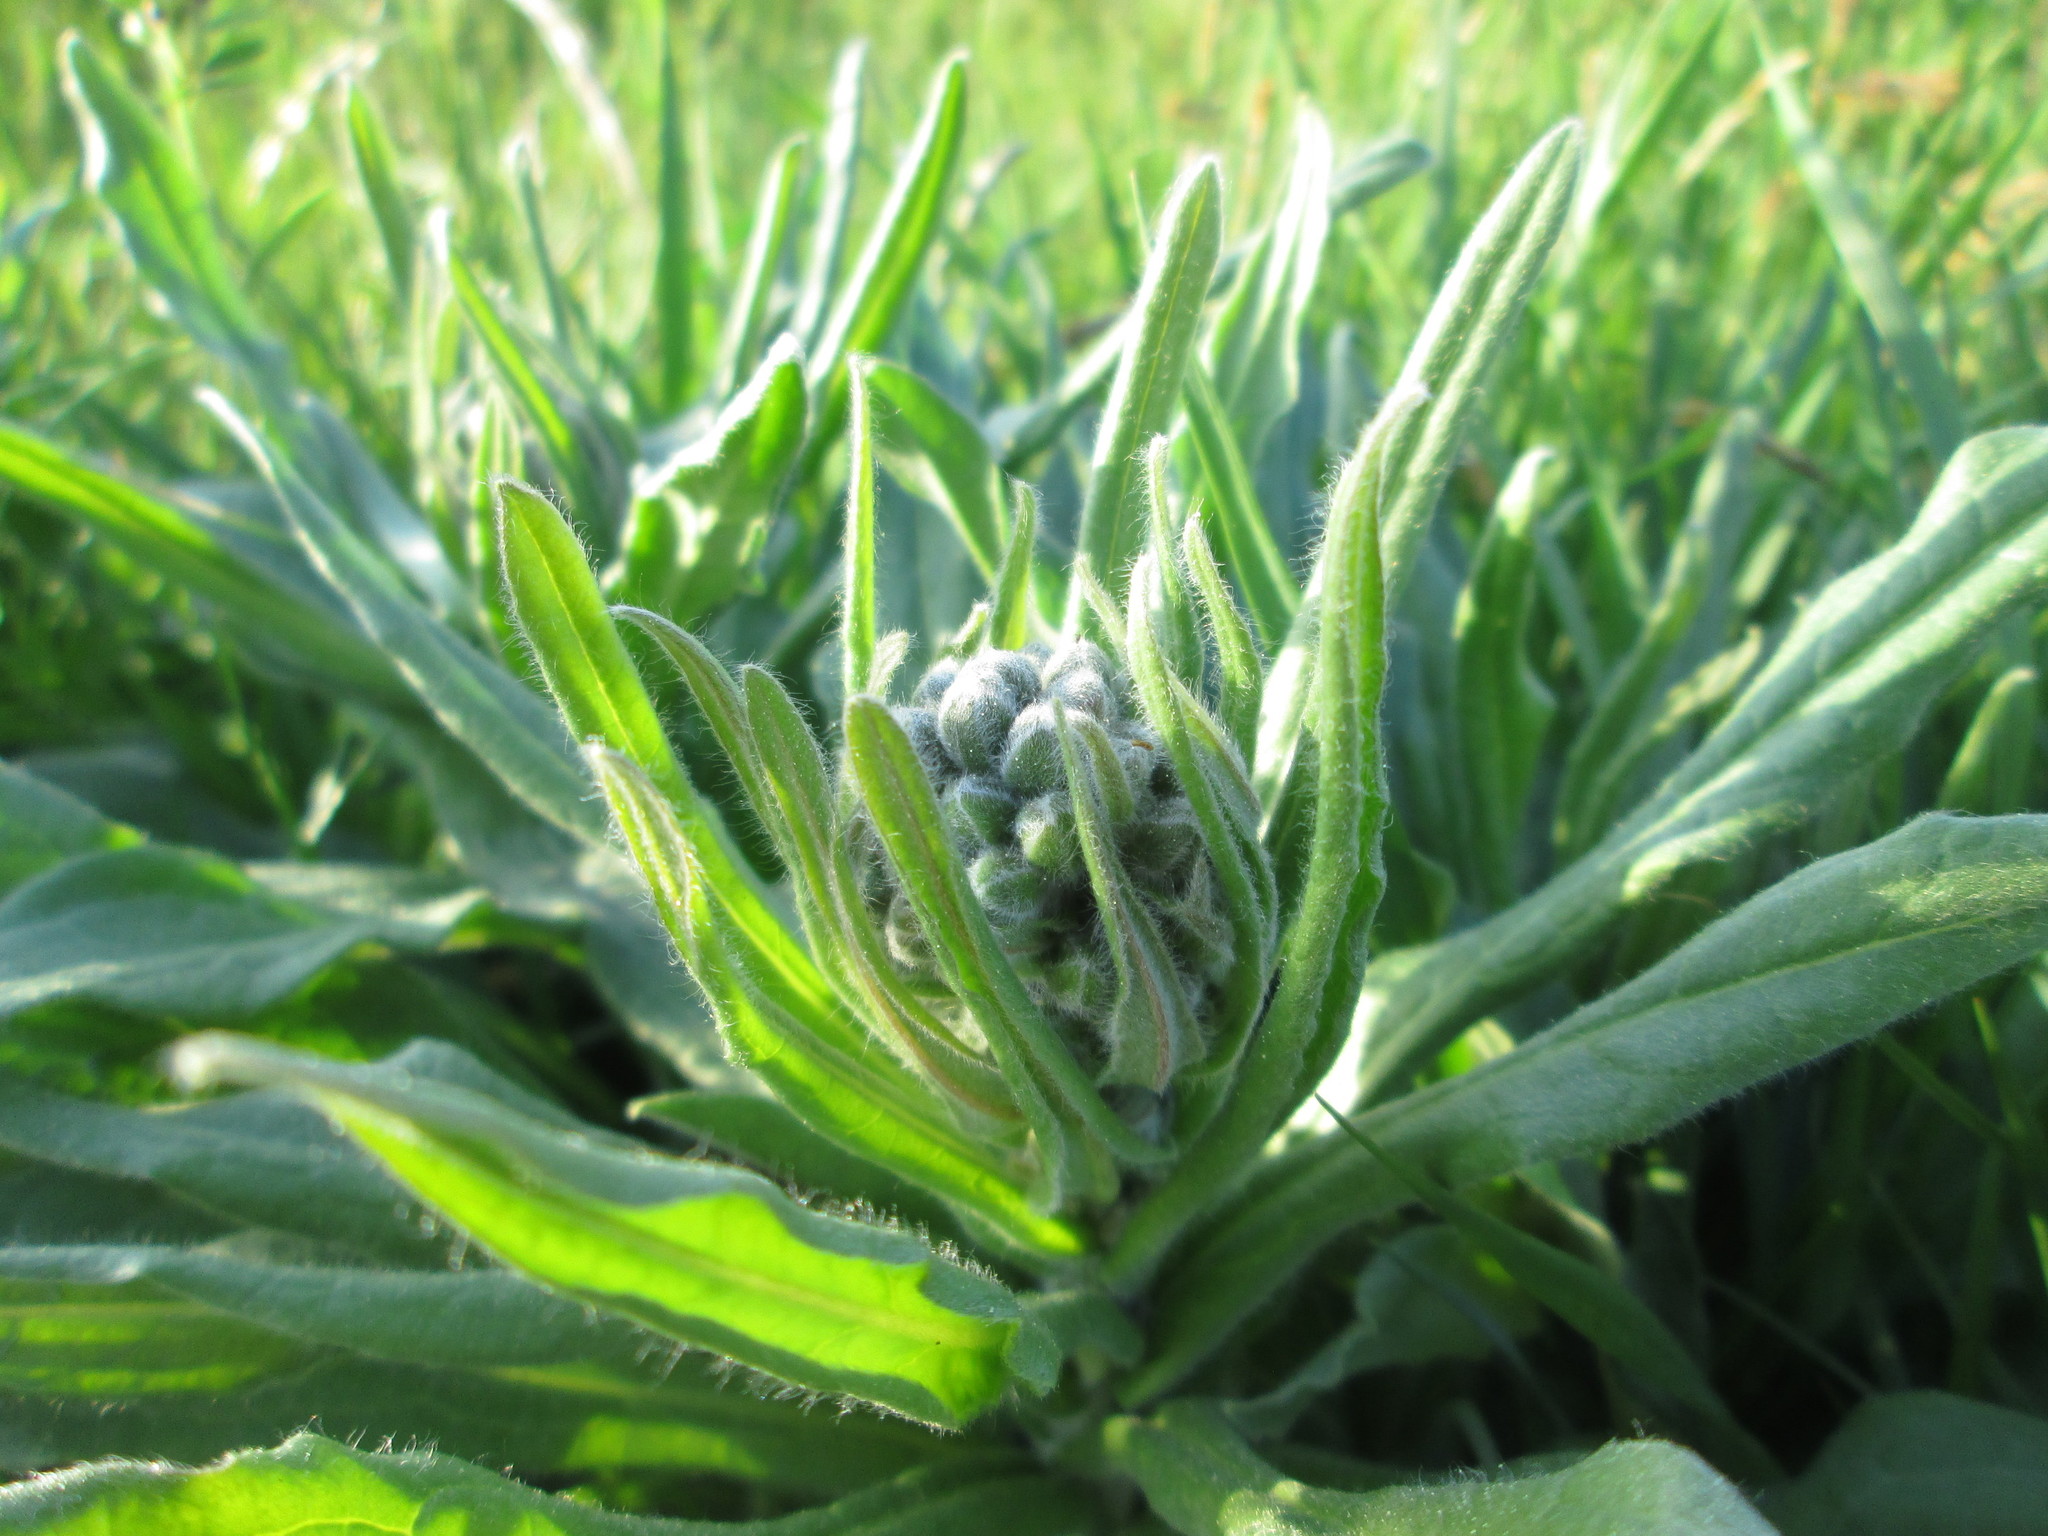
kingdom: Plantae
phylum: Tracheophyta
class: Magnoliopsida
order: Boraginales
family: Boraginaceae
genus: Cynoglossum
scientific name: Cynoglossum officinale
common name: Hound's-tongue
